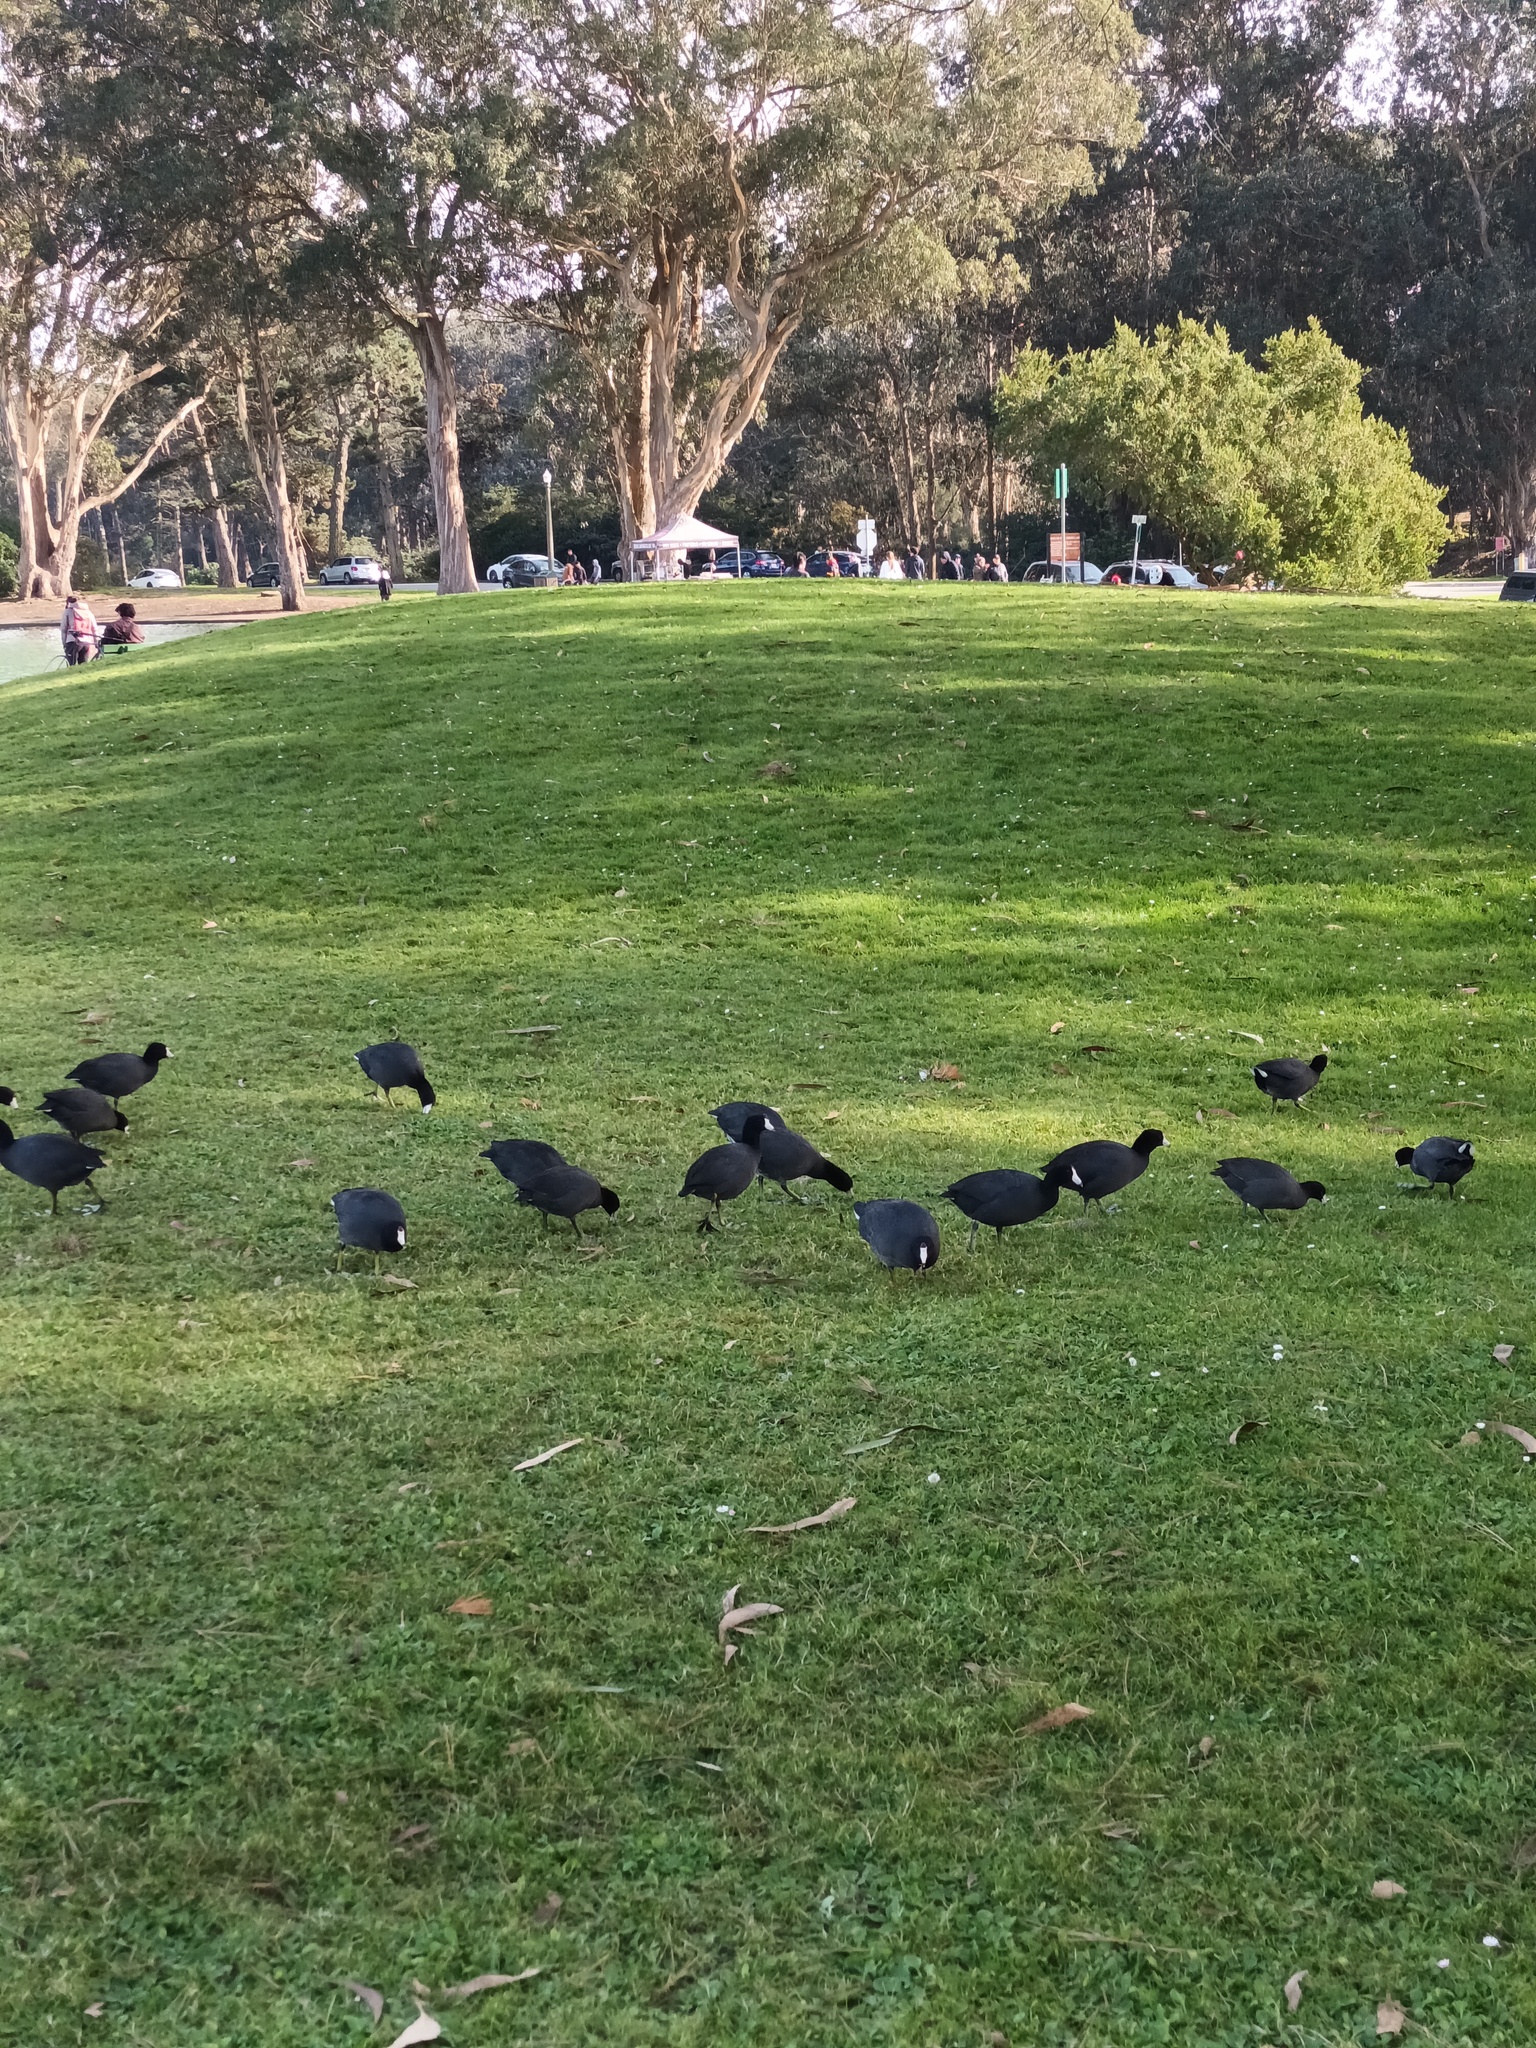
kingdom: Animalia
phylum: Chordata
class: Aves
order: Gruiformes
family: Rallidae
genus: Fulica
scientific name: Fulica americana
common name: American coot
